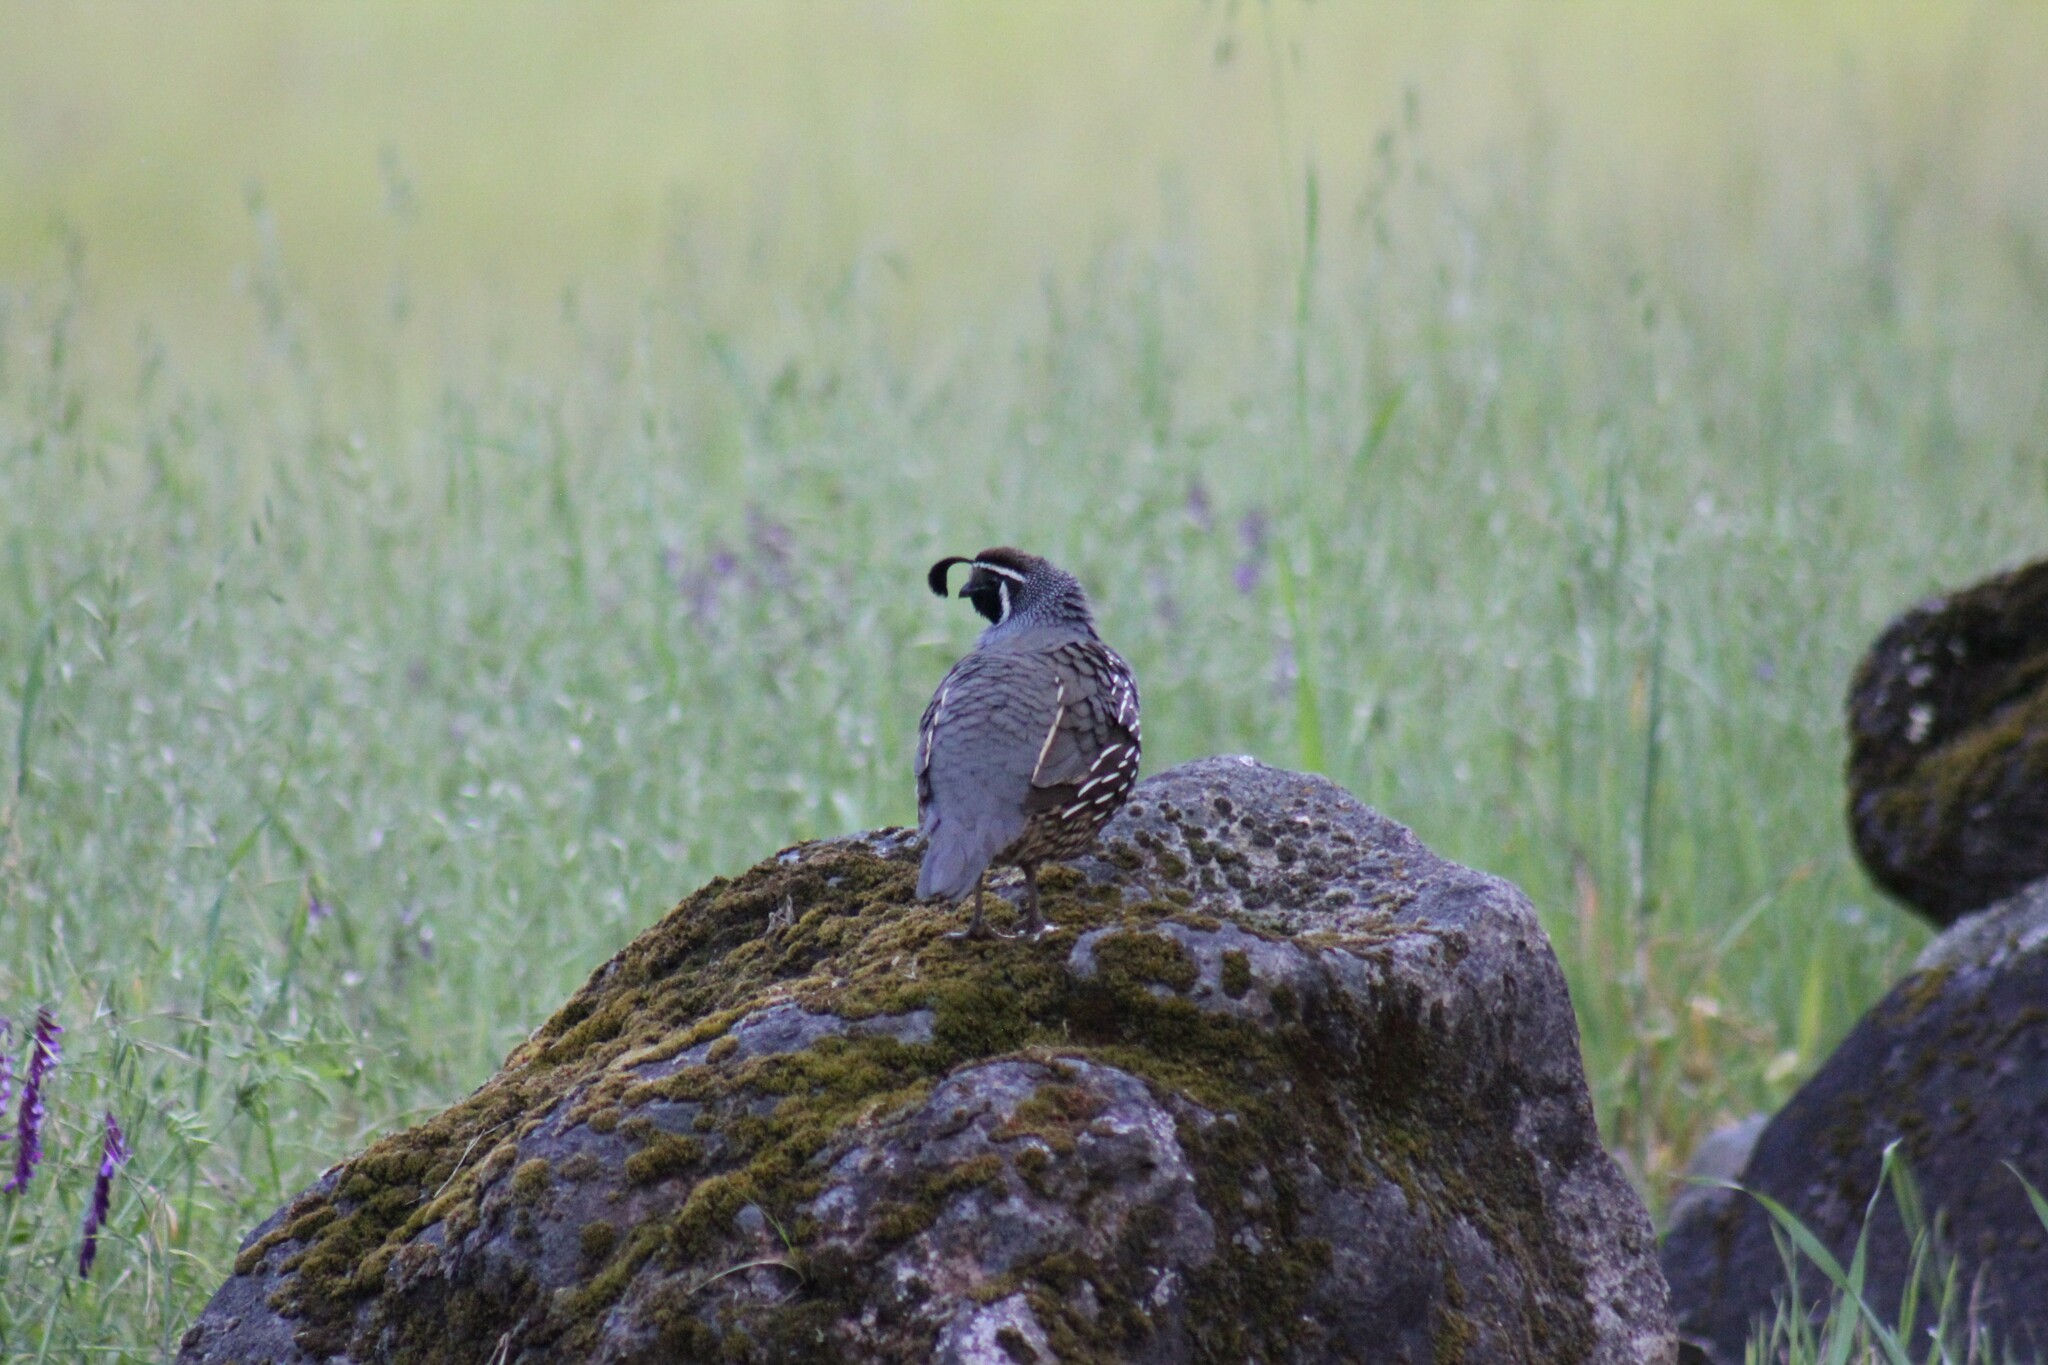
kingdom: Animalia
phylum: Chordata
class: Aves
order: Galliformes
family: Odontophoridae
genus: Callipepla
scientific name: Callipepla californica
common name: California quail
